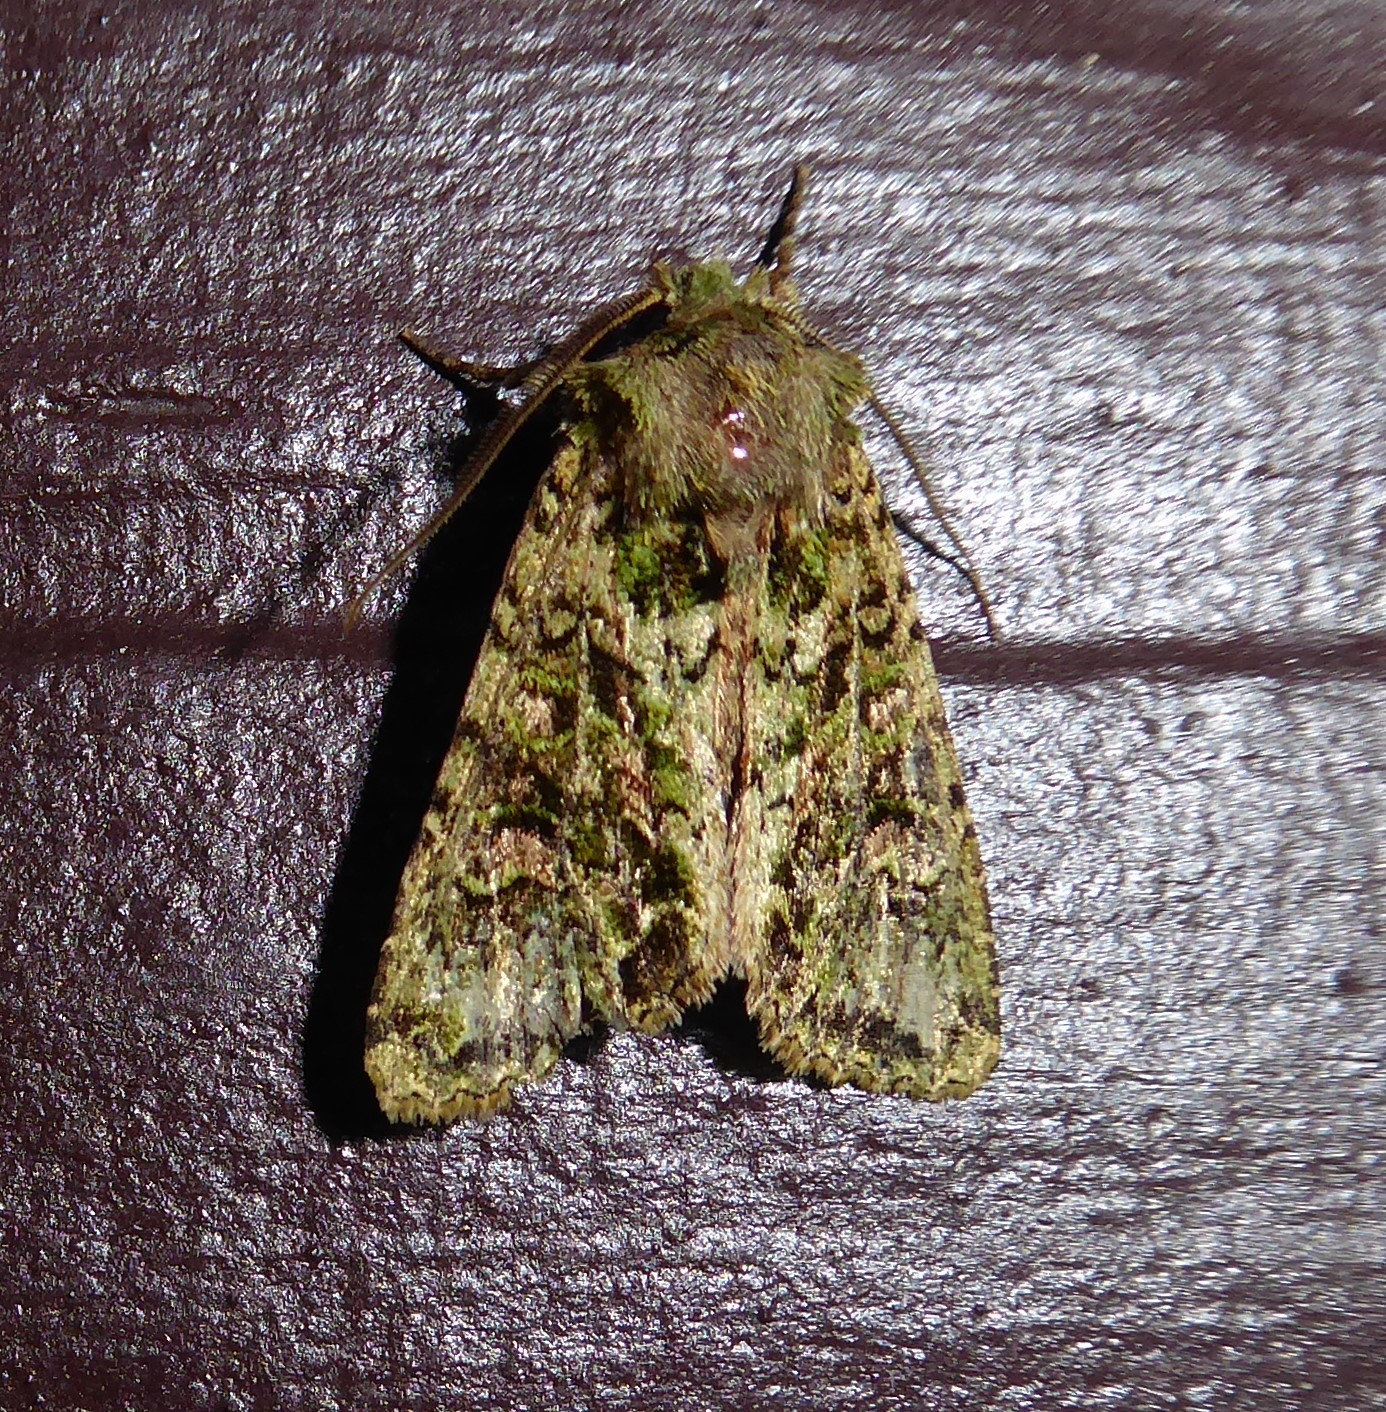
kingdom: Animalia
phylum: Arthropoda
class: Insecta
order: Lepidoptera
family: Noctuidae
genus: Ichneutica
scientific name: Ichneutica
